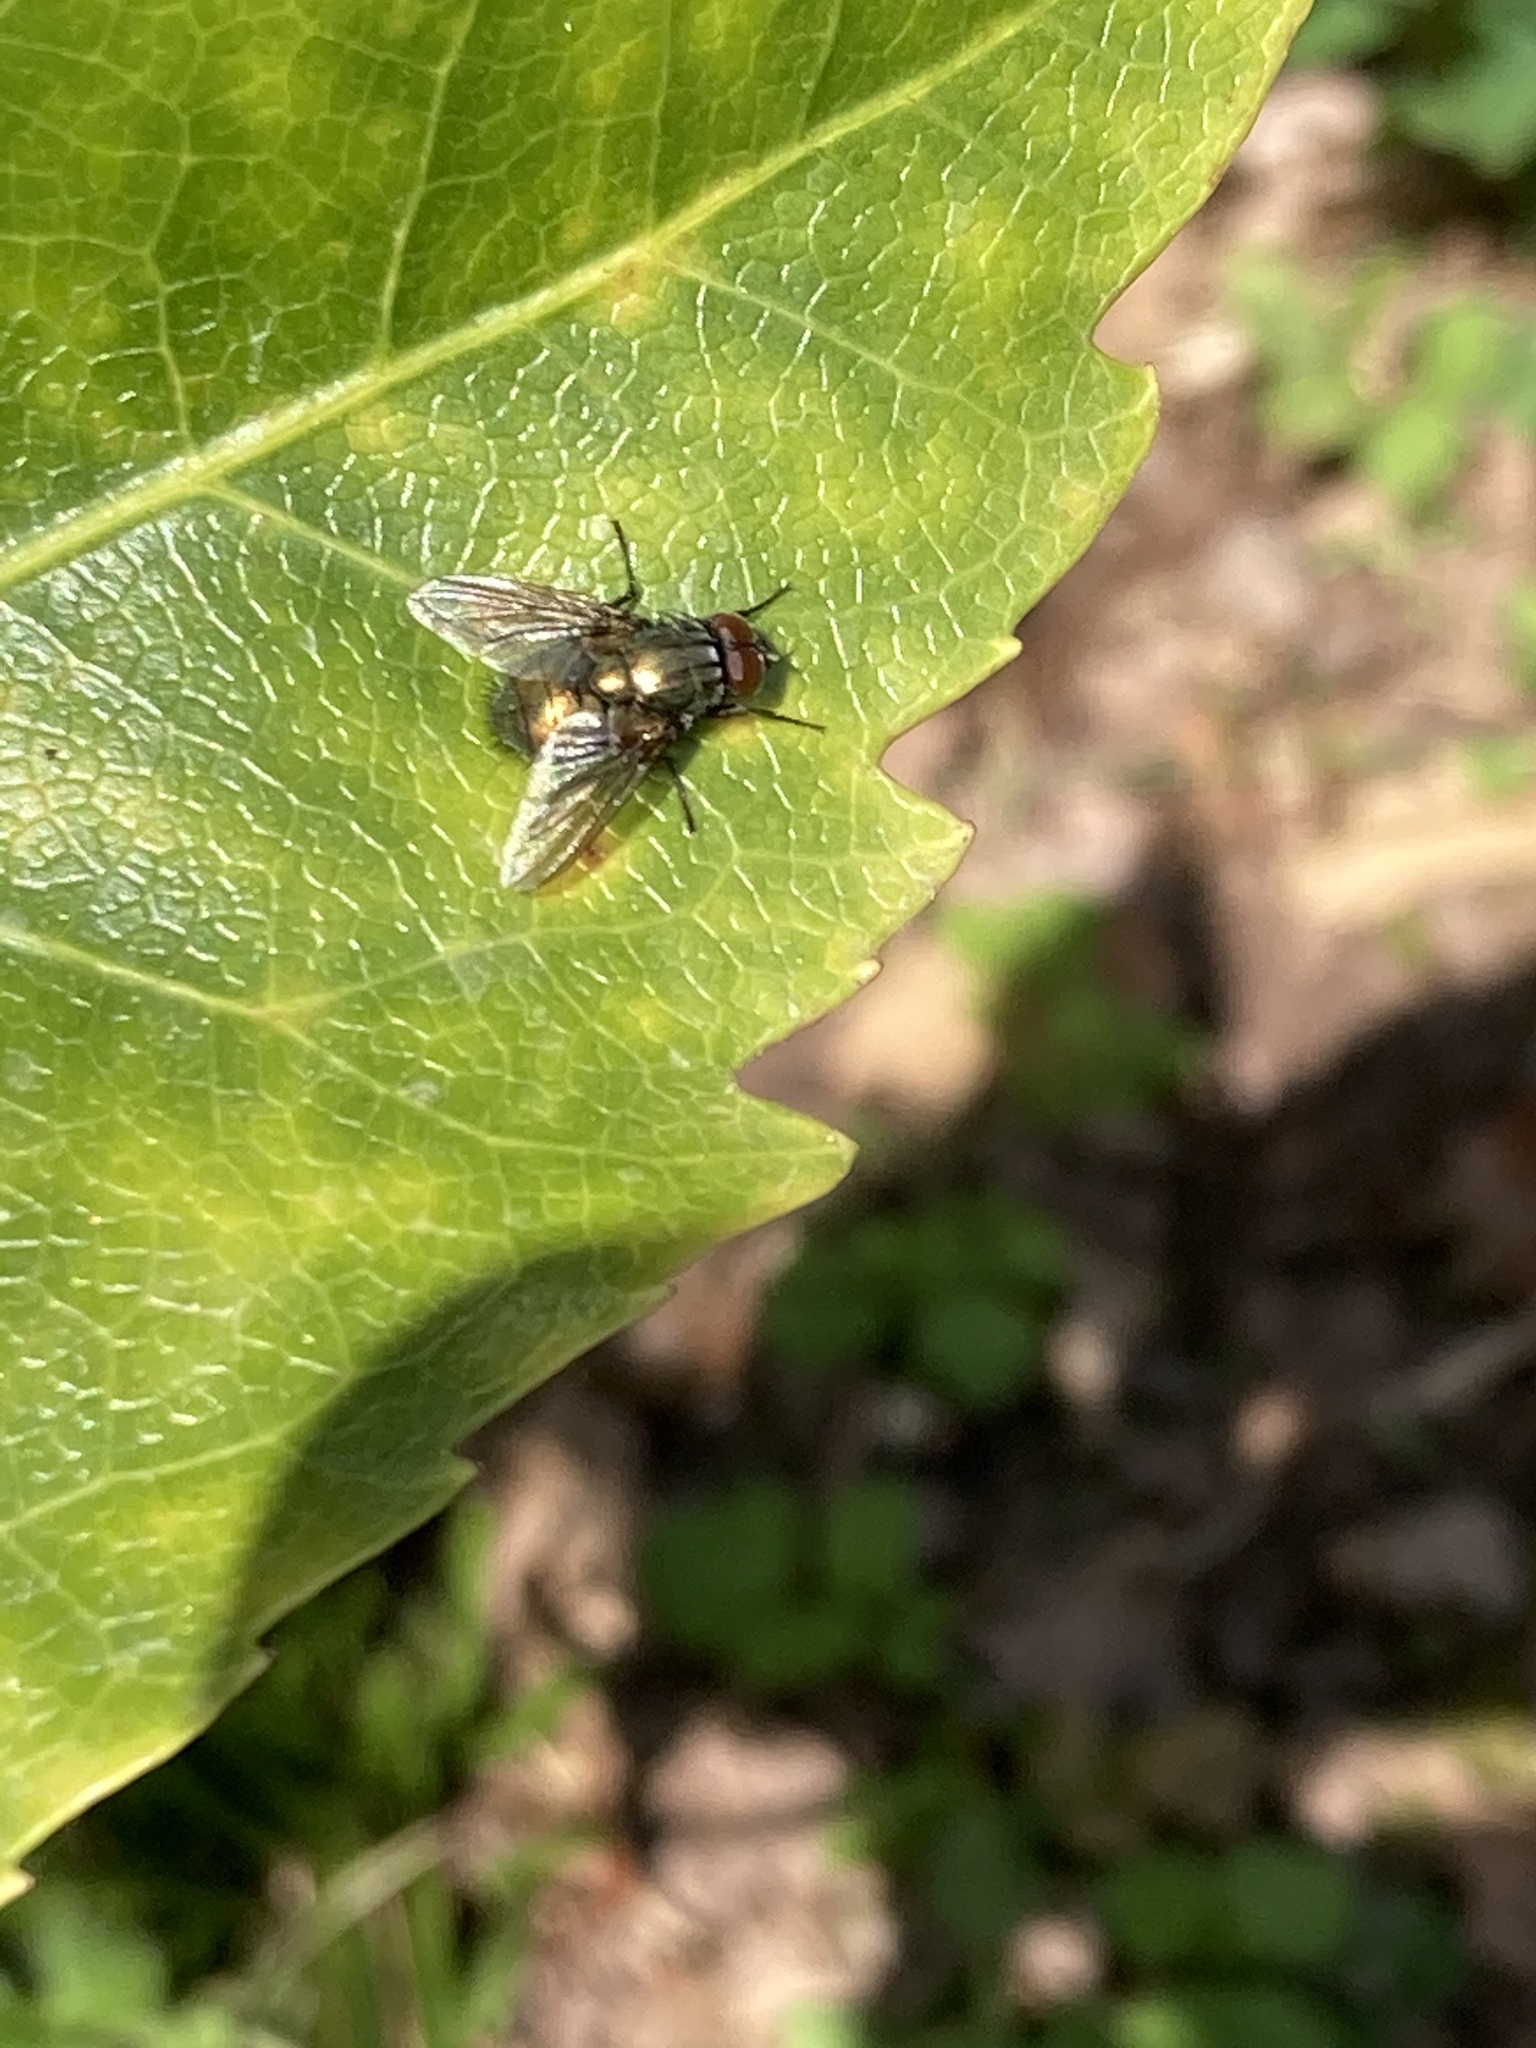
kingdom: Animalia
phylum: Arthropoda
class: Insecta
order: Diptera
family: Muscidae
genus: Dasyphora
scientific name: Dasyphora cyanella
